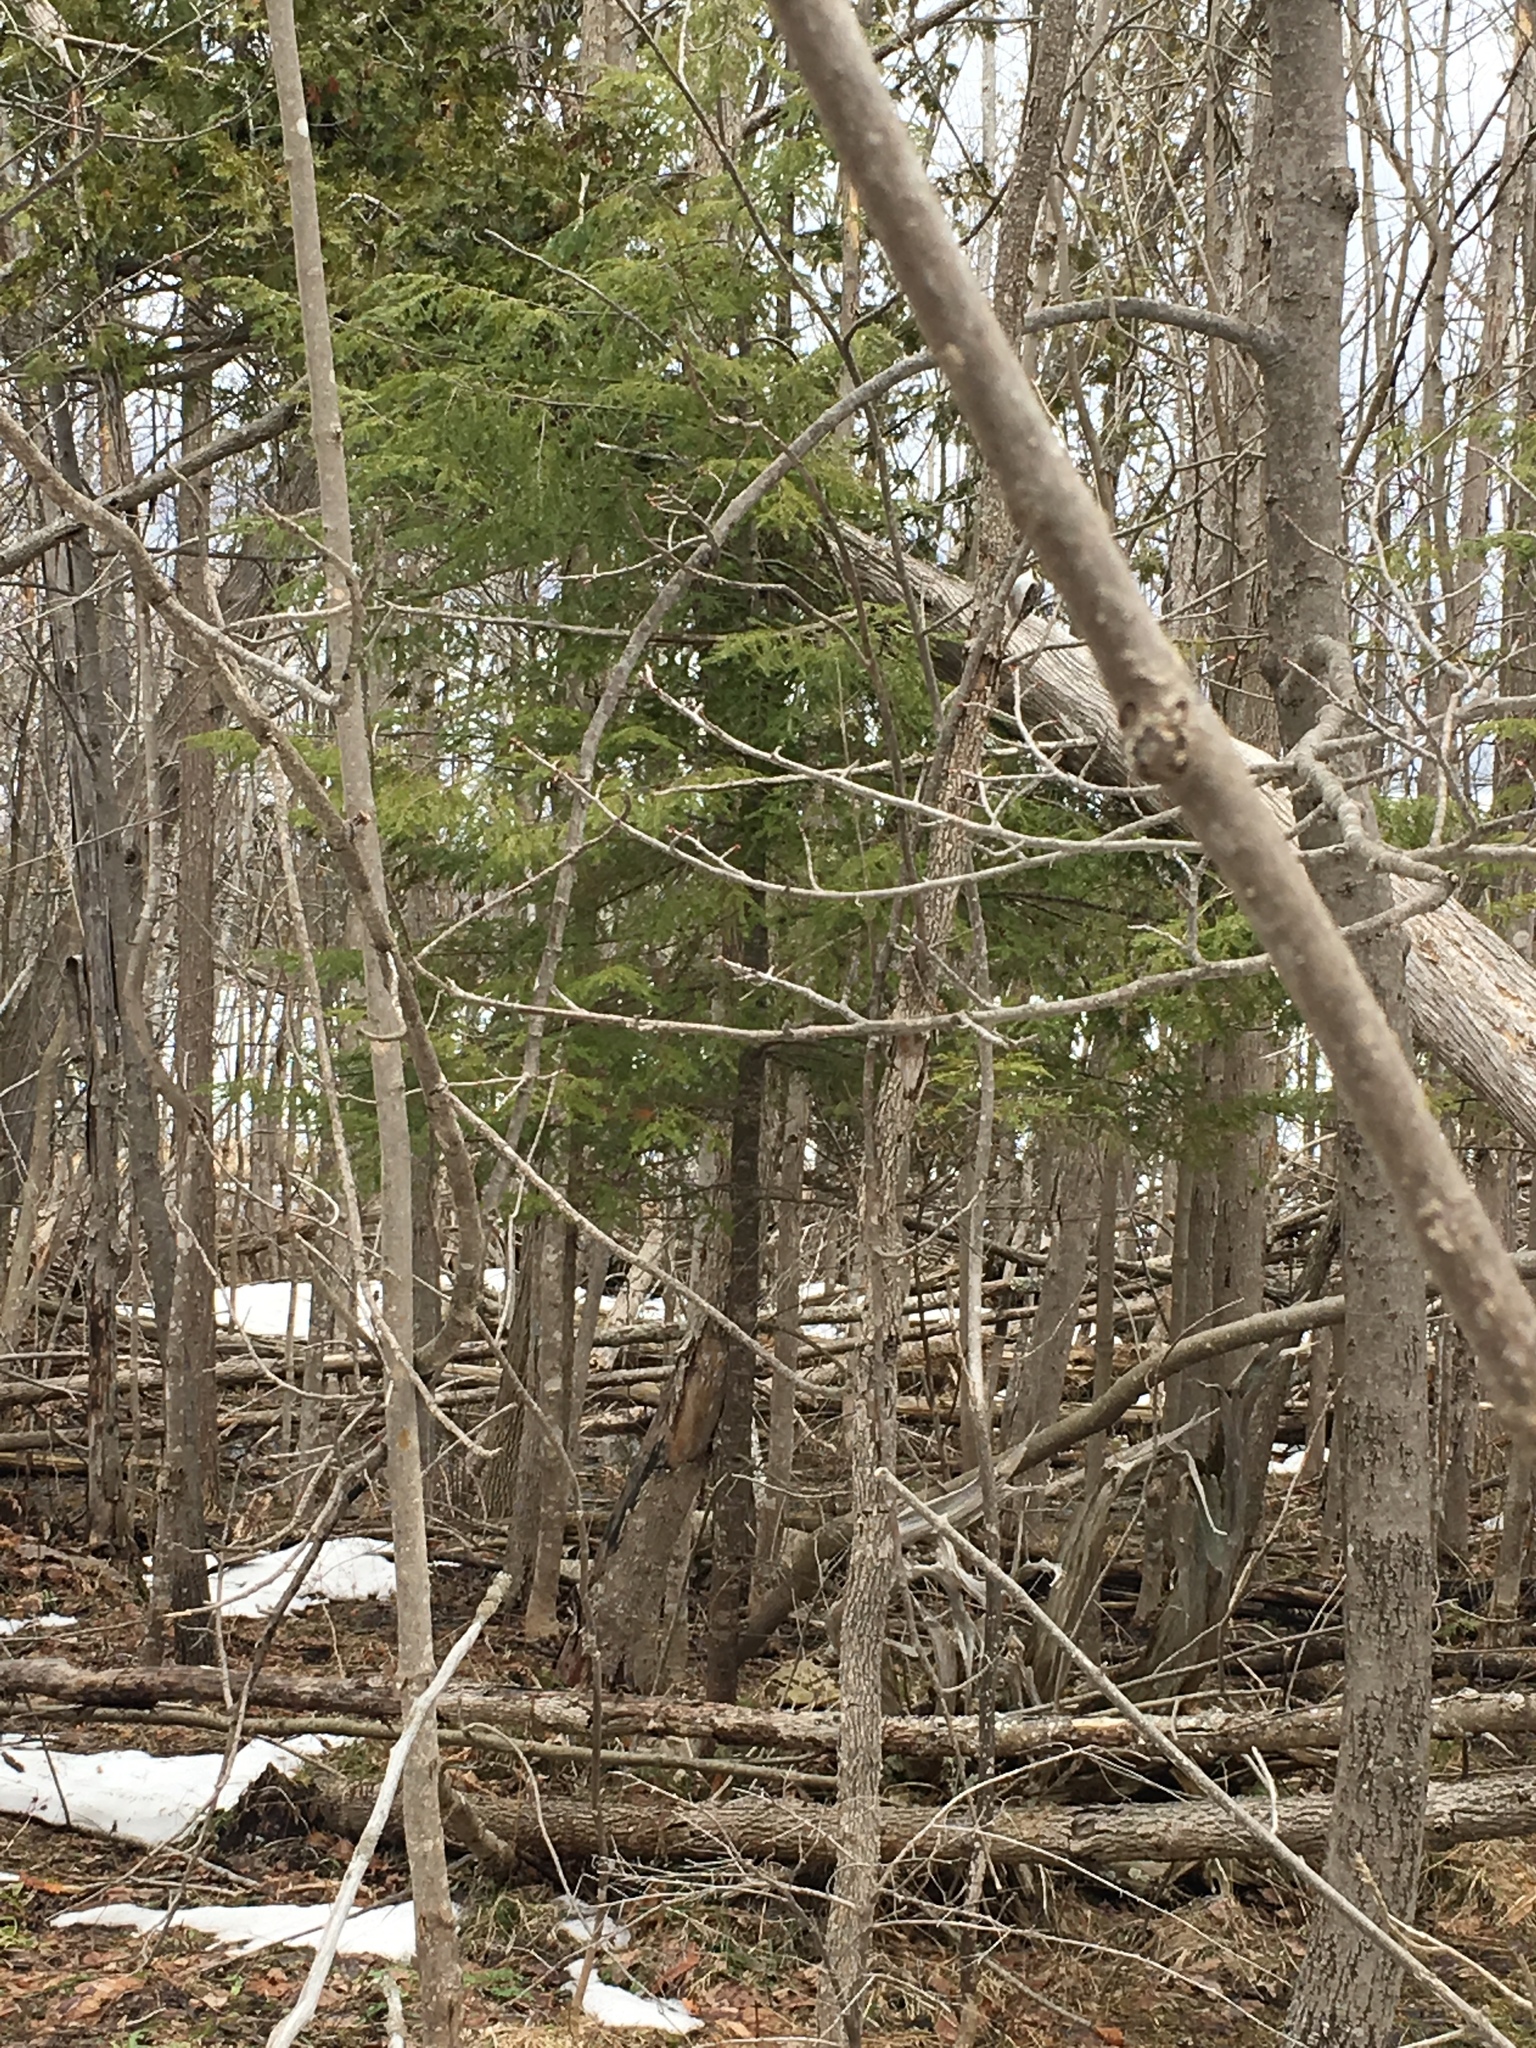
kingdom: Animalia
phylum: Chordata
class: Aves
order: Passeriformes
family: Certhiidae
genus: Certhia
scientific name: Certhia americana
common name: Brown creeper
